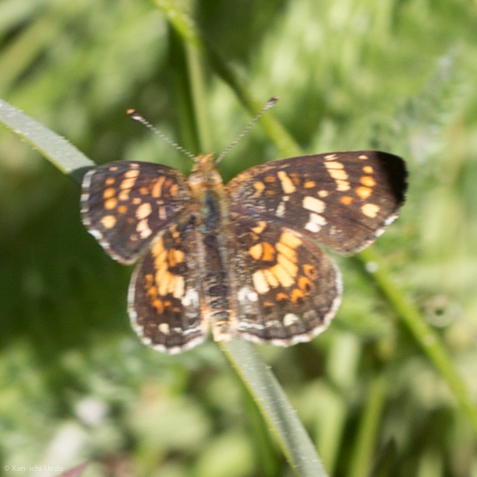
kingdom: Animalia
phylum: Arthropoda
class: Insecta
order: Lepidoptera
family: Nymphalidae
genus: Phyciodes
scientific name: Phyciodes tharos
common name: Pearl crescent
